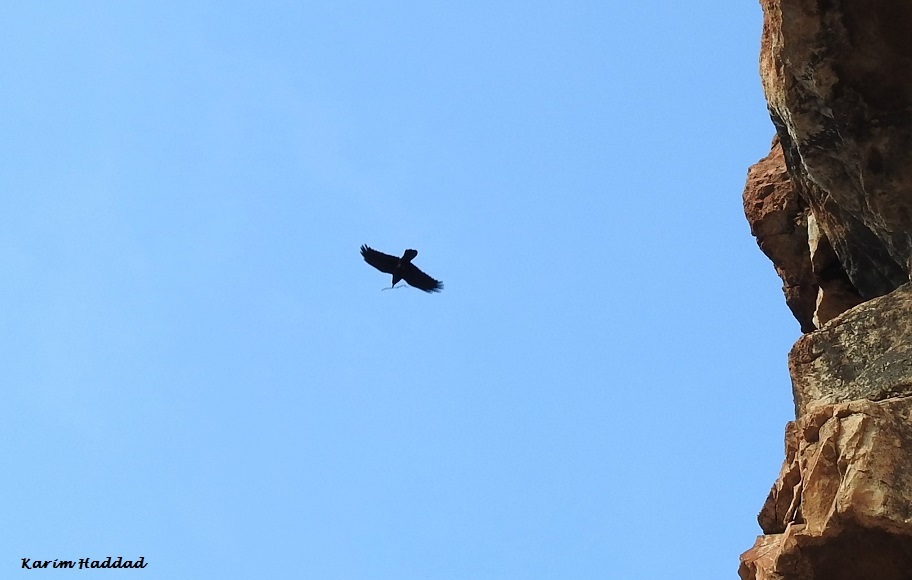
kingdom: Animalia
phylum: Chordata
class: Aves
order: Passeriformes
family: Corvidae
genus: Corvus
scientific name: Corvus corax
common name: Common raven
